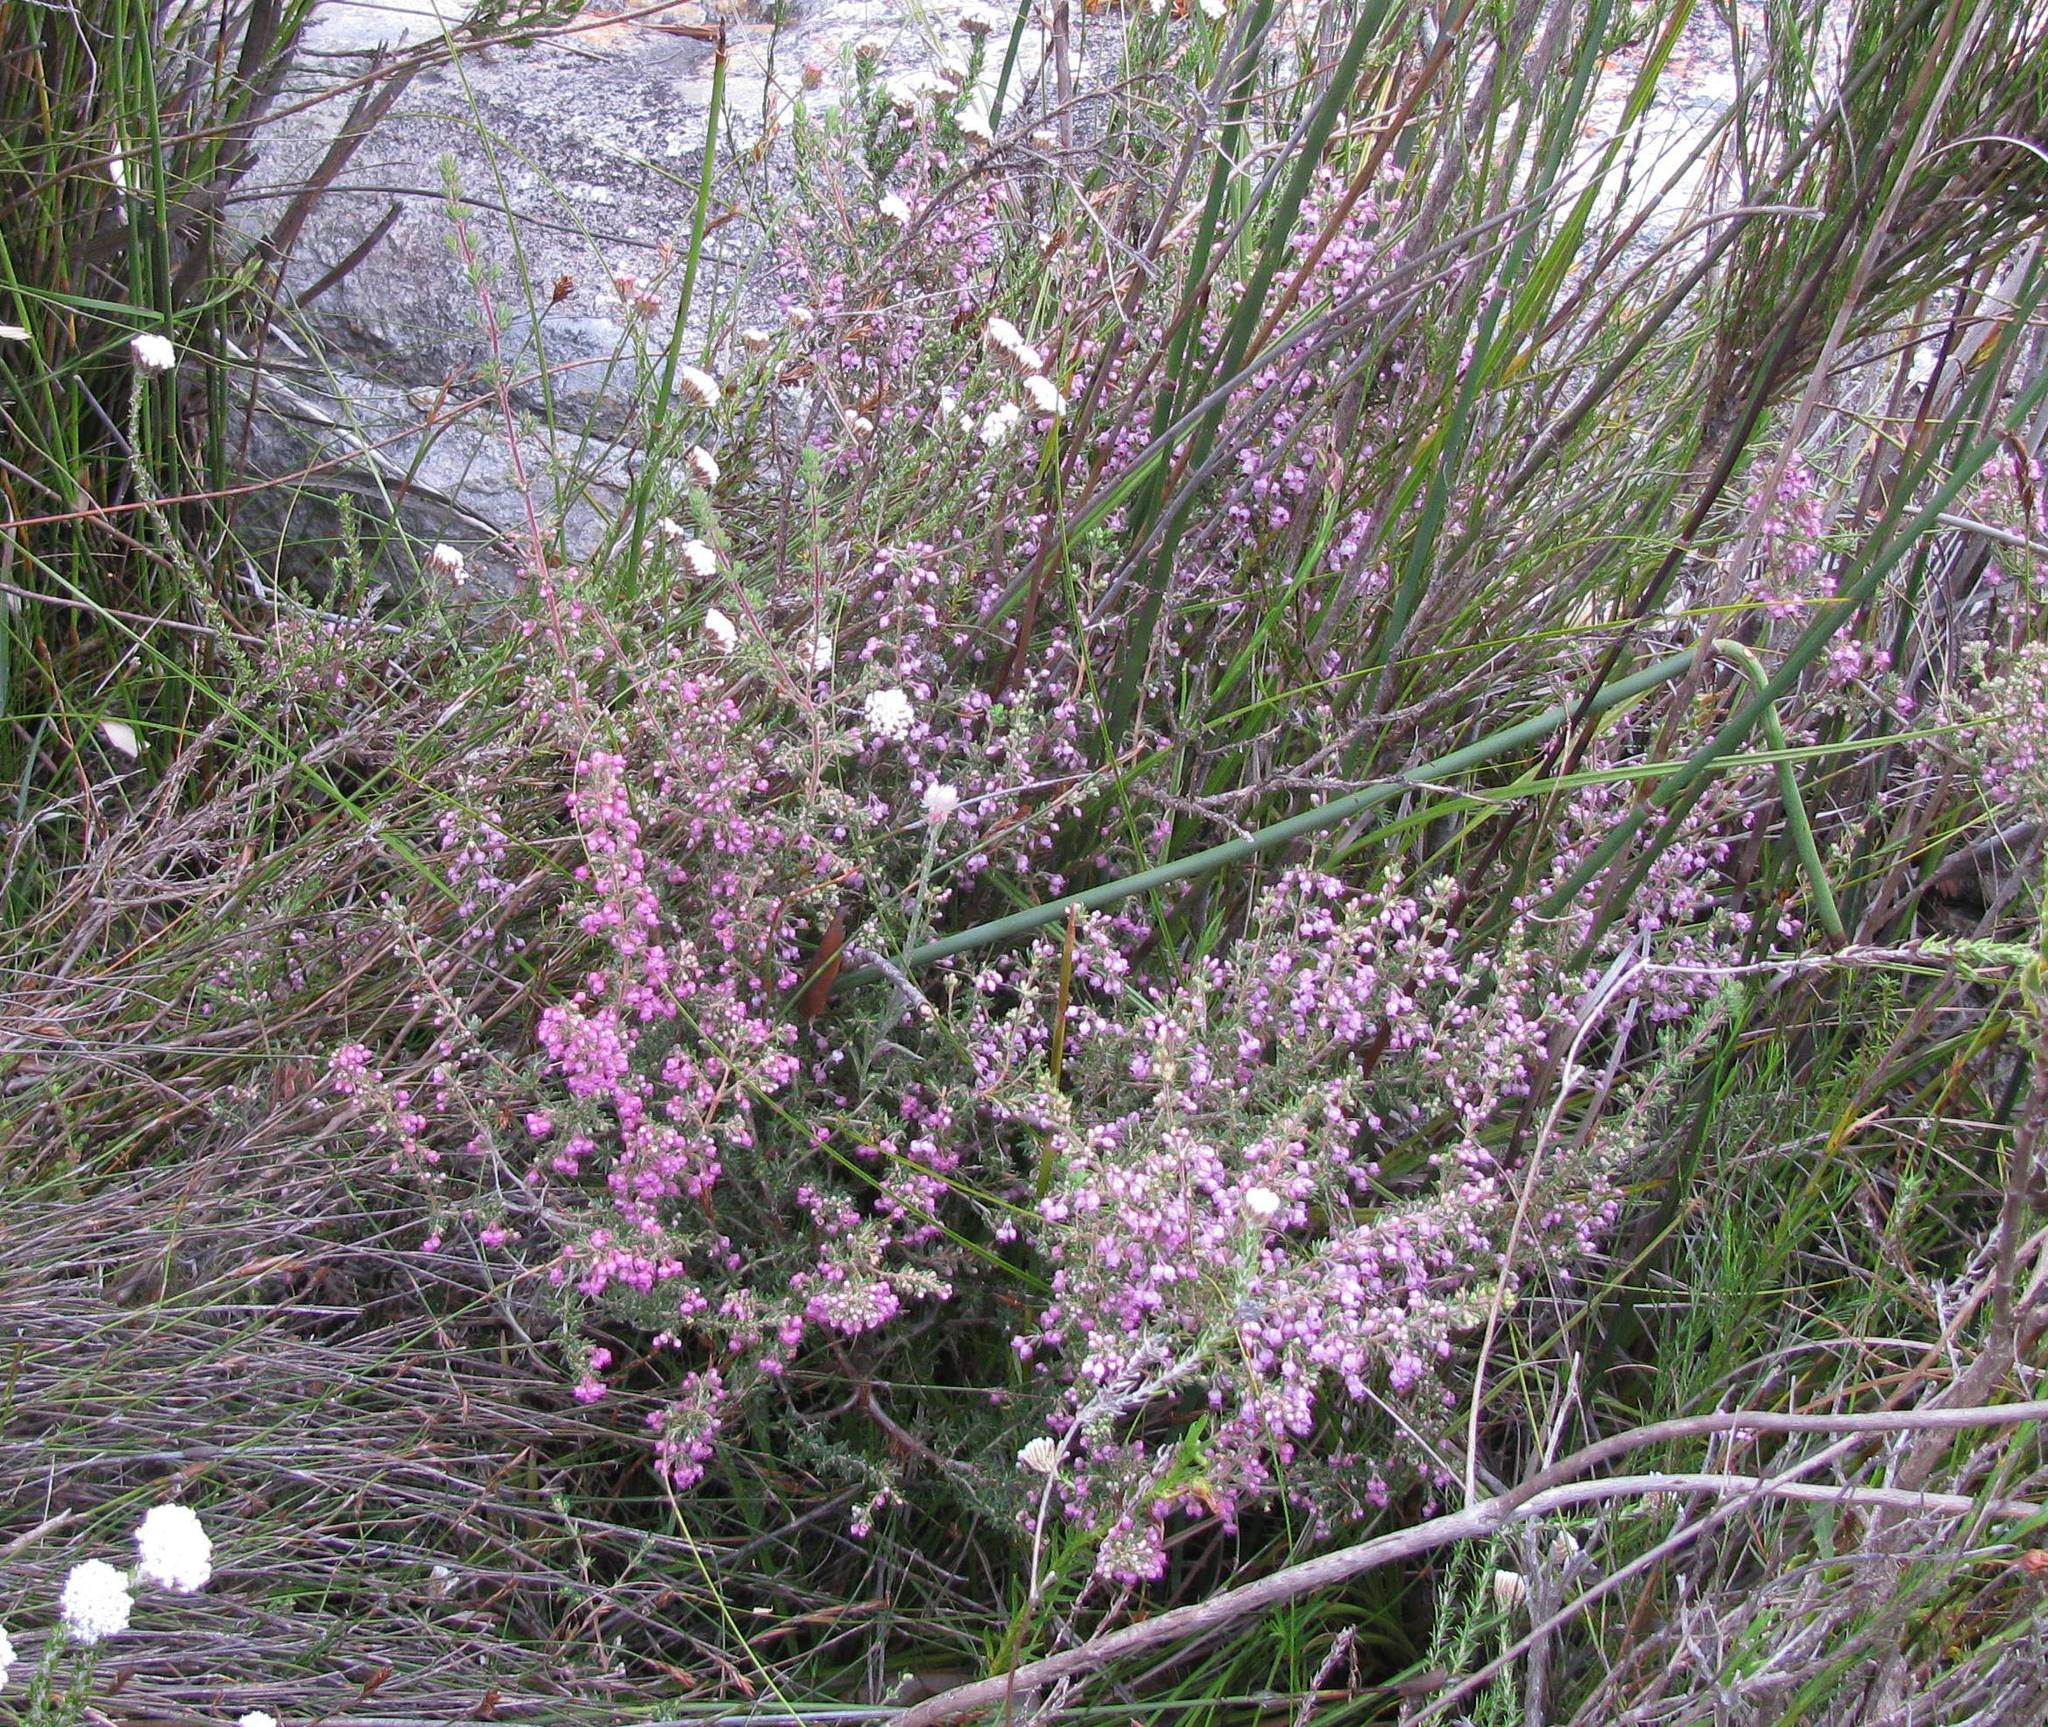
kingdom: Plantae
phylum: Tracheophyta
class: Magnoliopsida
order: Ericales
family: Ericaceae
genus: Erica
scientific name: Erica grata
